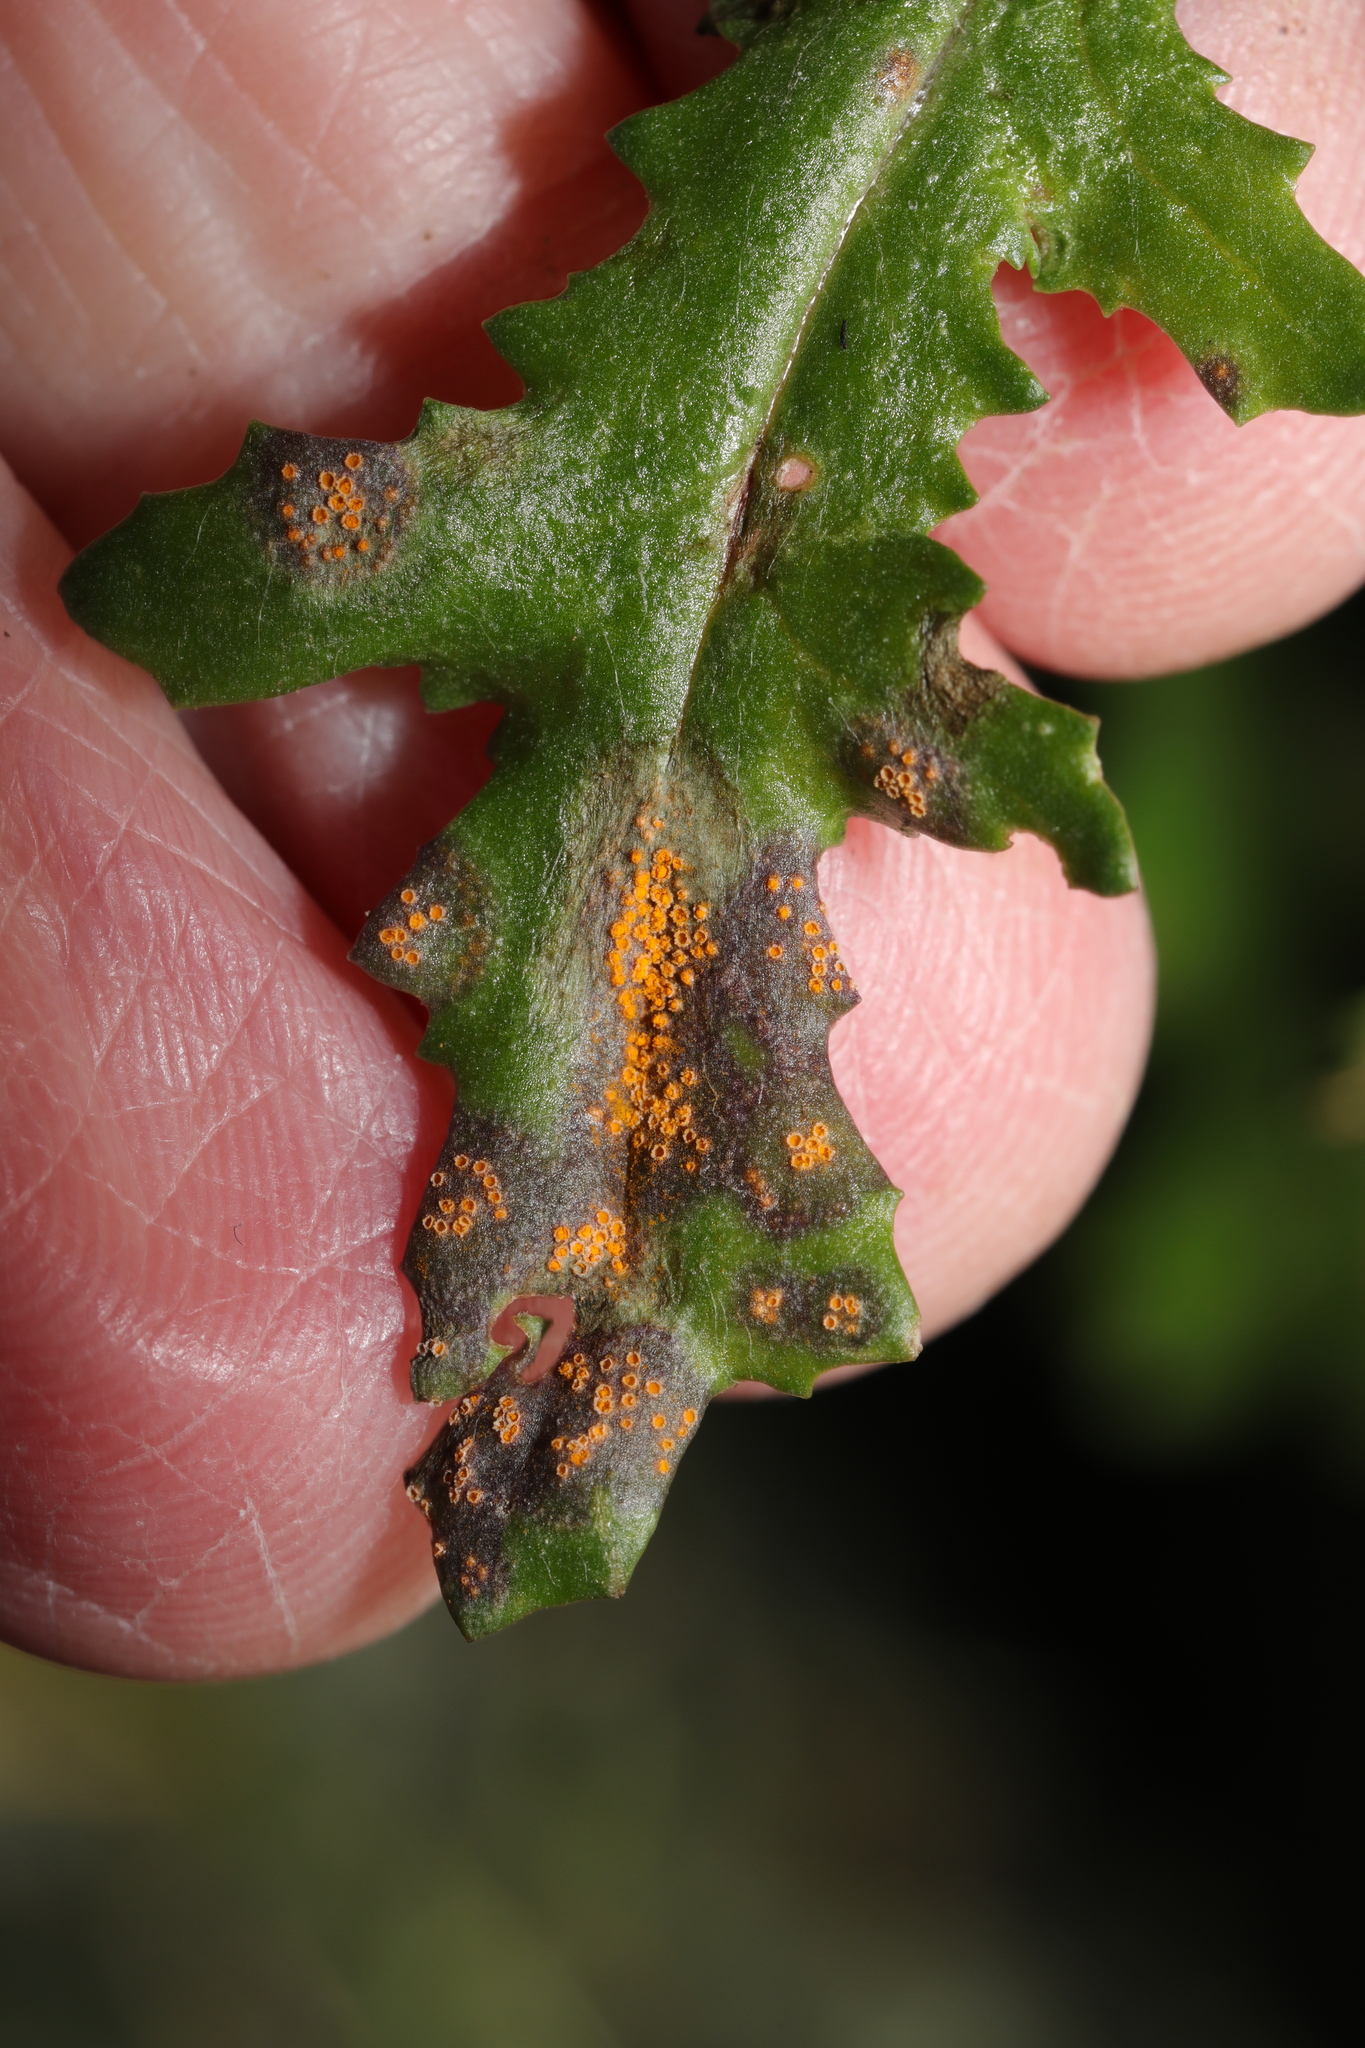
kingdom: Fungi
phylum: Basidiomycota
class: Pucciniomycetes
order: Pucciniales
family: Pucciniaceae
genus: Puccinia
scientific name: Puccinia lagenophorae
